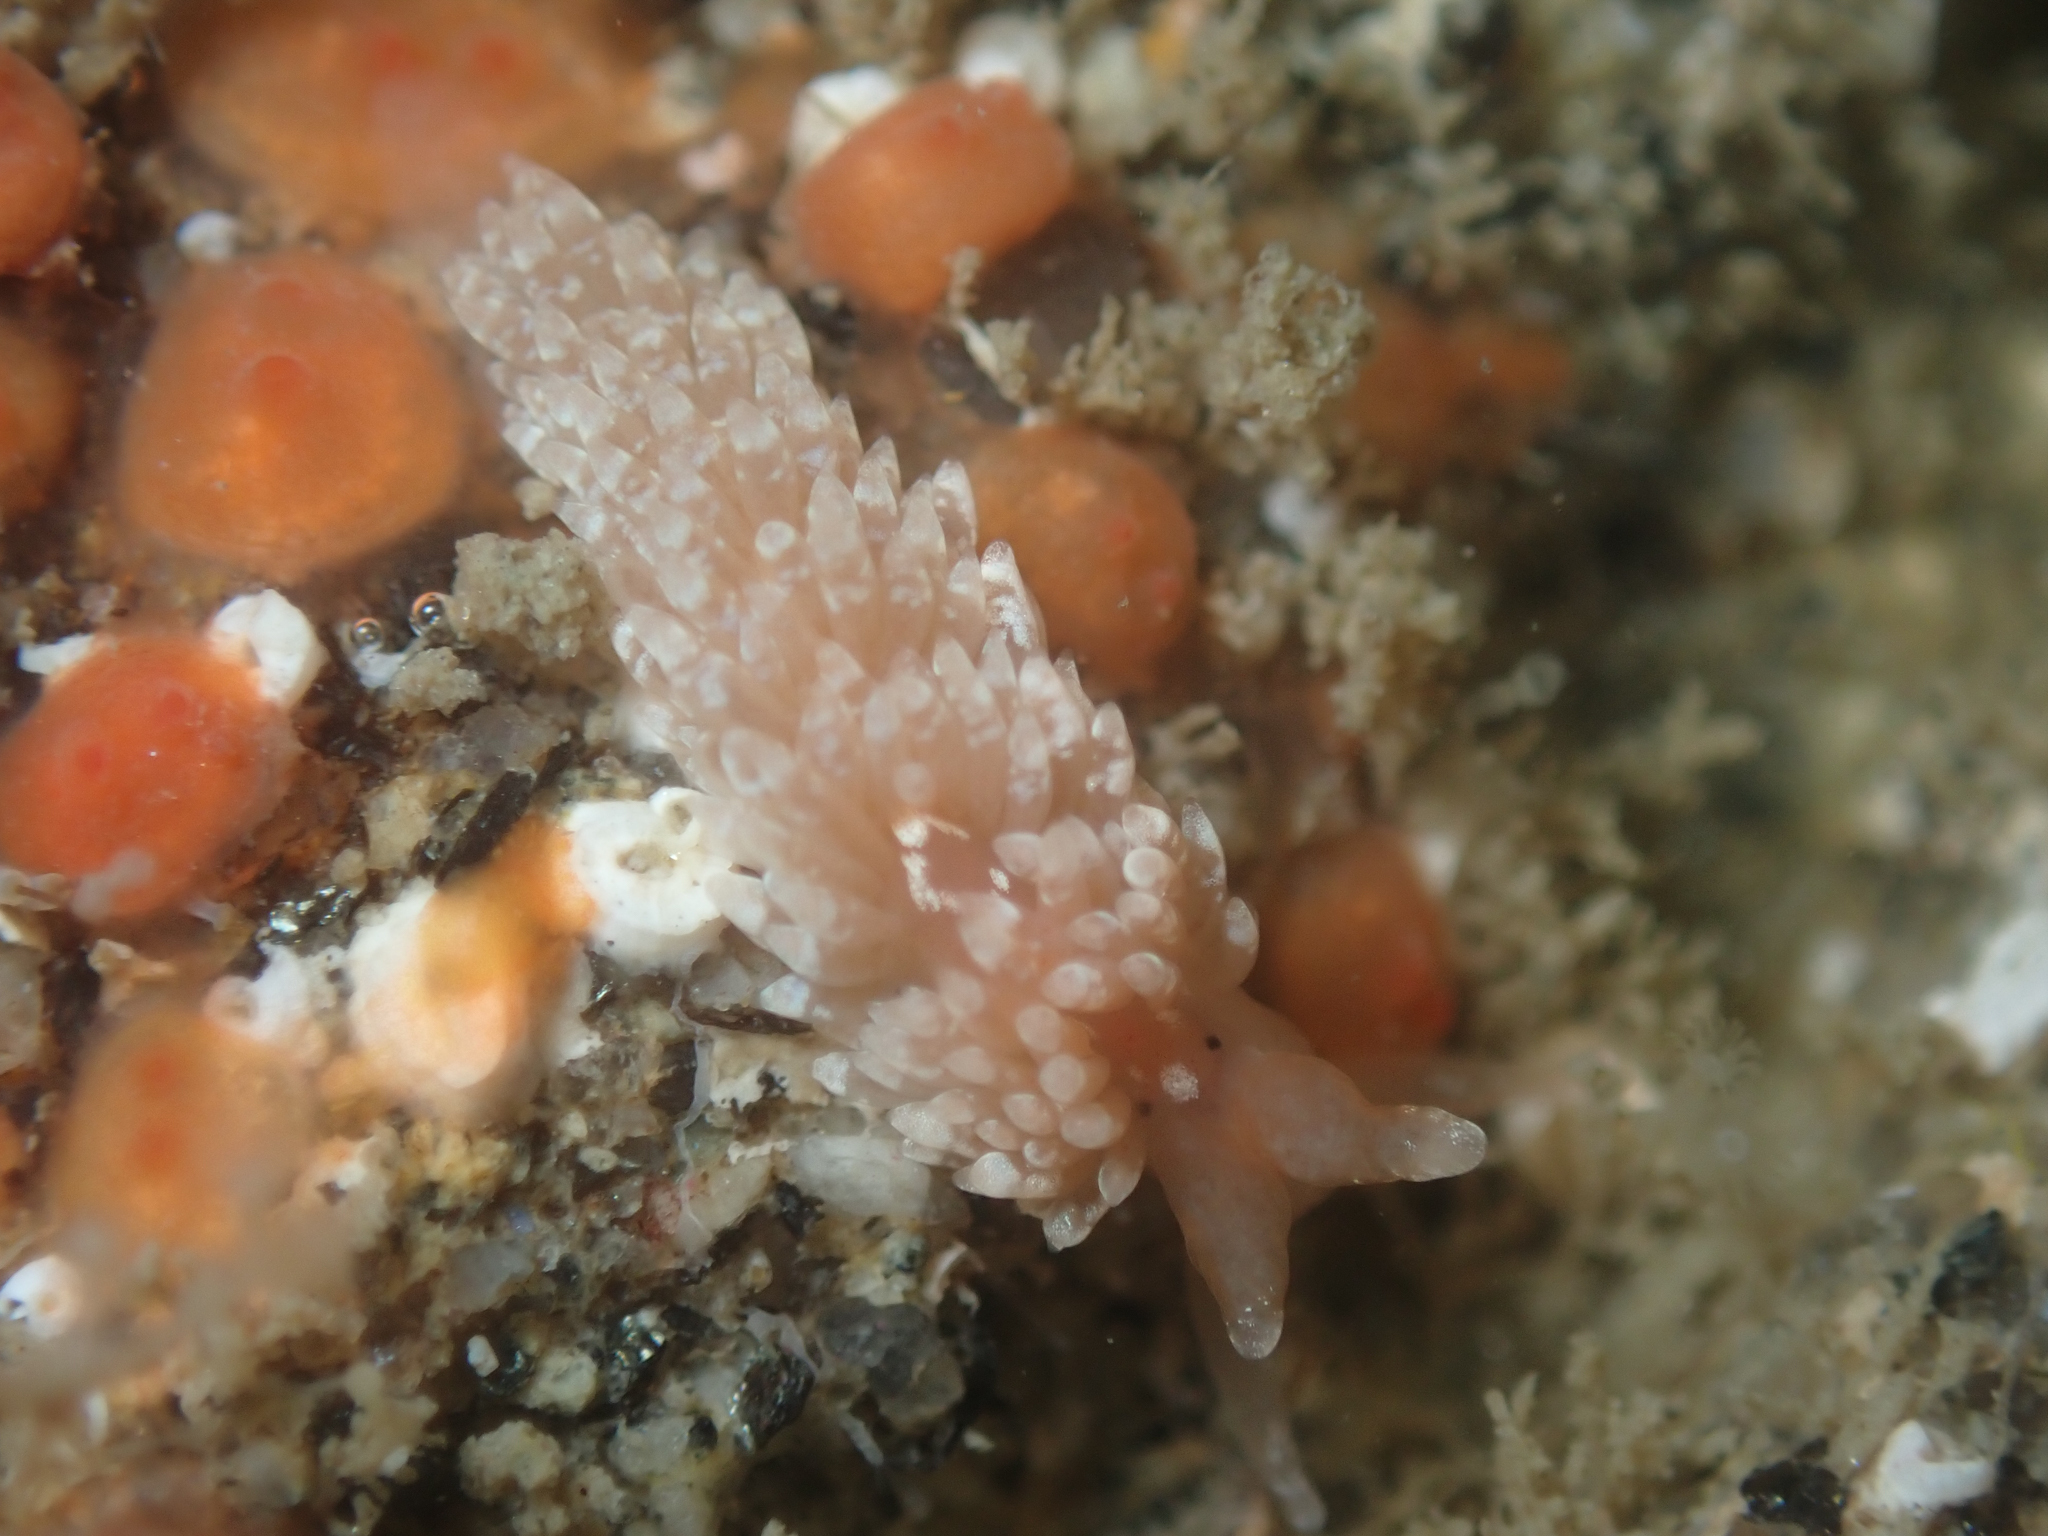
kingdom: Animalia
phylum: Mollusca
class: Gastropoda
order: Nudibranchia
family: Aeolidiidae
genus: Anteaeolidiella
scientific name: Anteaeolidiella chromosoma
